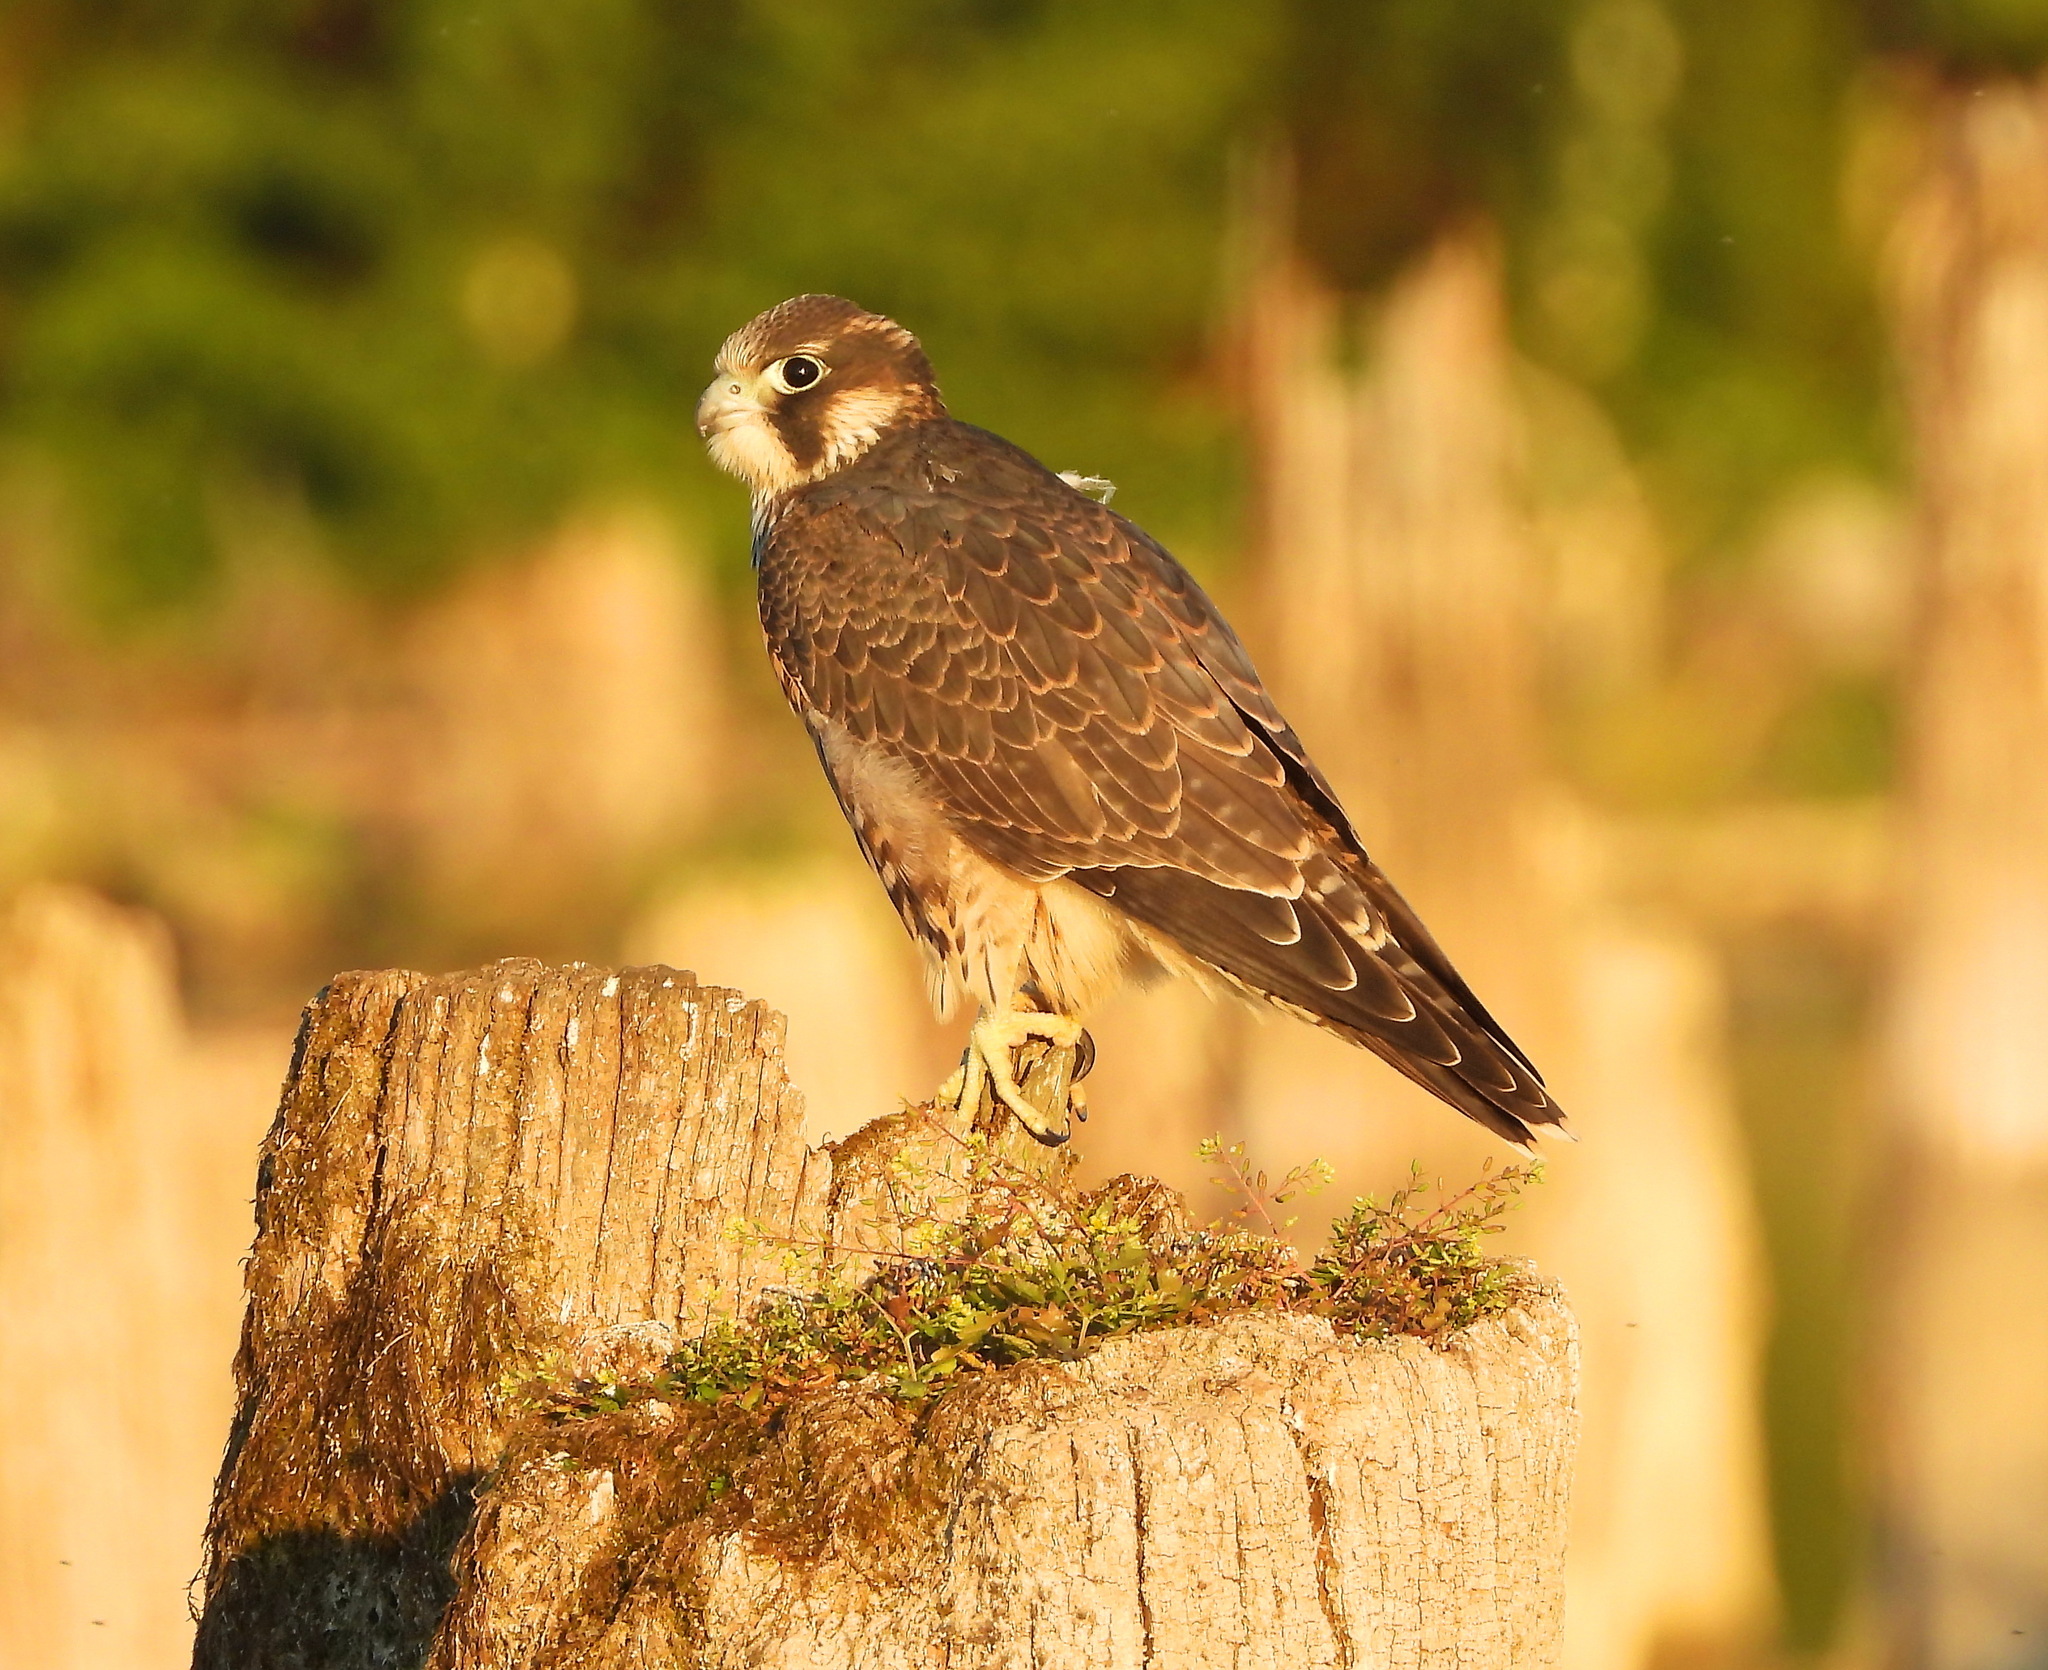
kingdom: Animalia
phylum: Chordata
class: Aves
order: Falconiformes
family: Falconidae
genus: Falco
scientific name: Falco subbuteo
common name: Eurasian hobby
